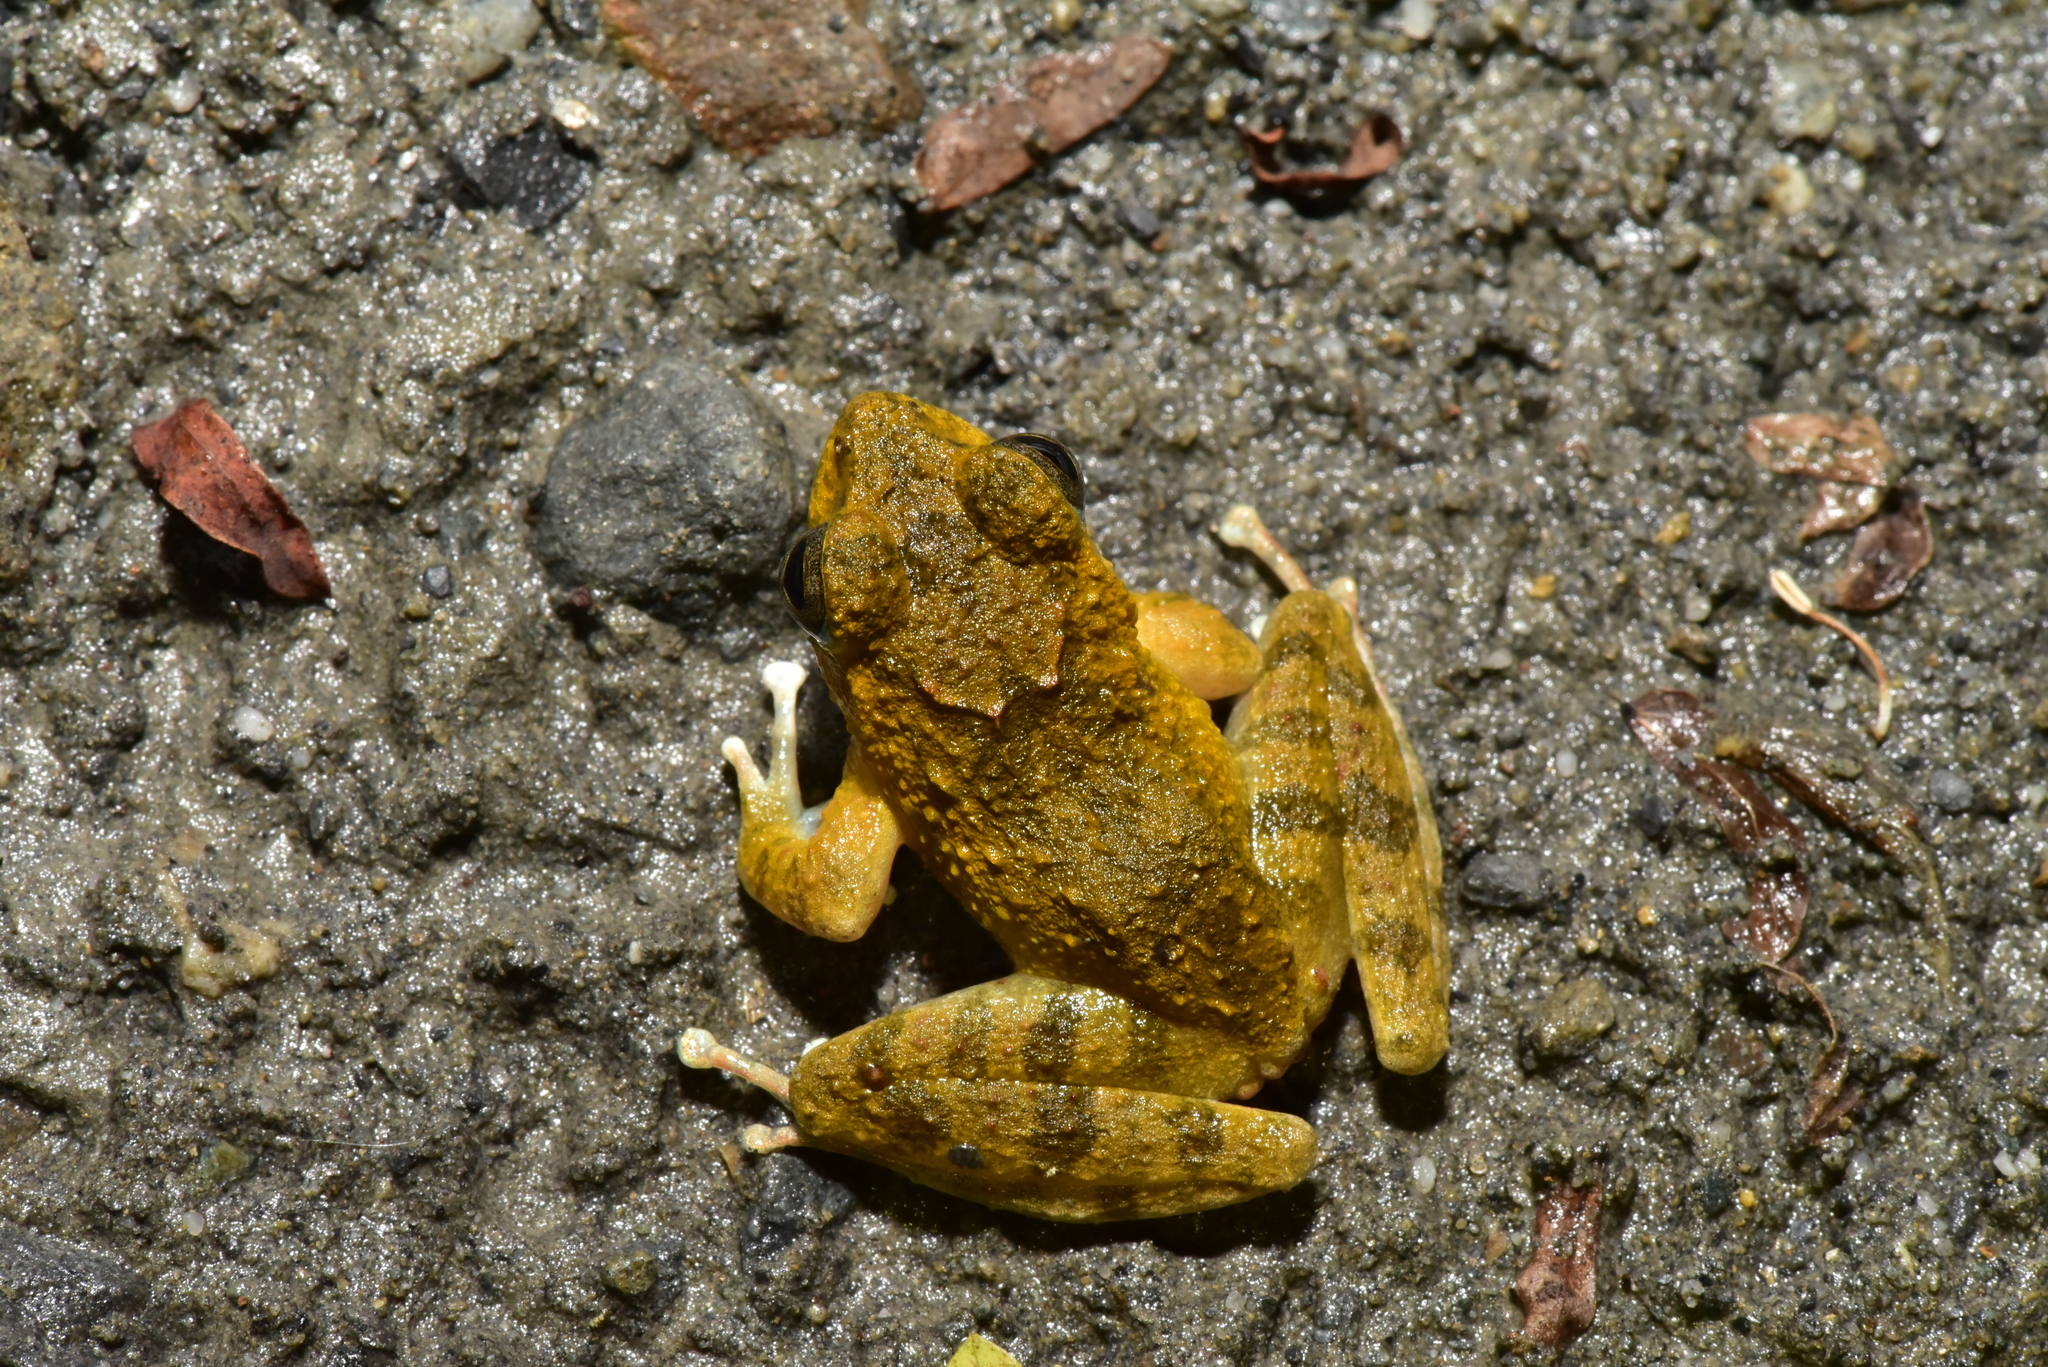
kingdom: Animalia
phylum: Chordata
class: Amphibia
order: Anura
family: Rhacophoridae
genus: Buergeria
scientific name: Buergeria otai
